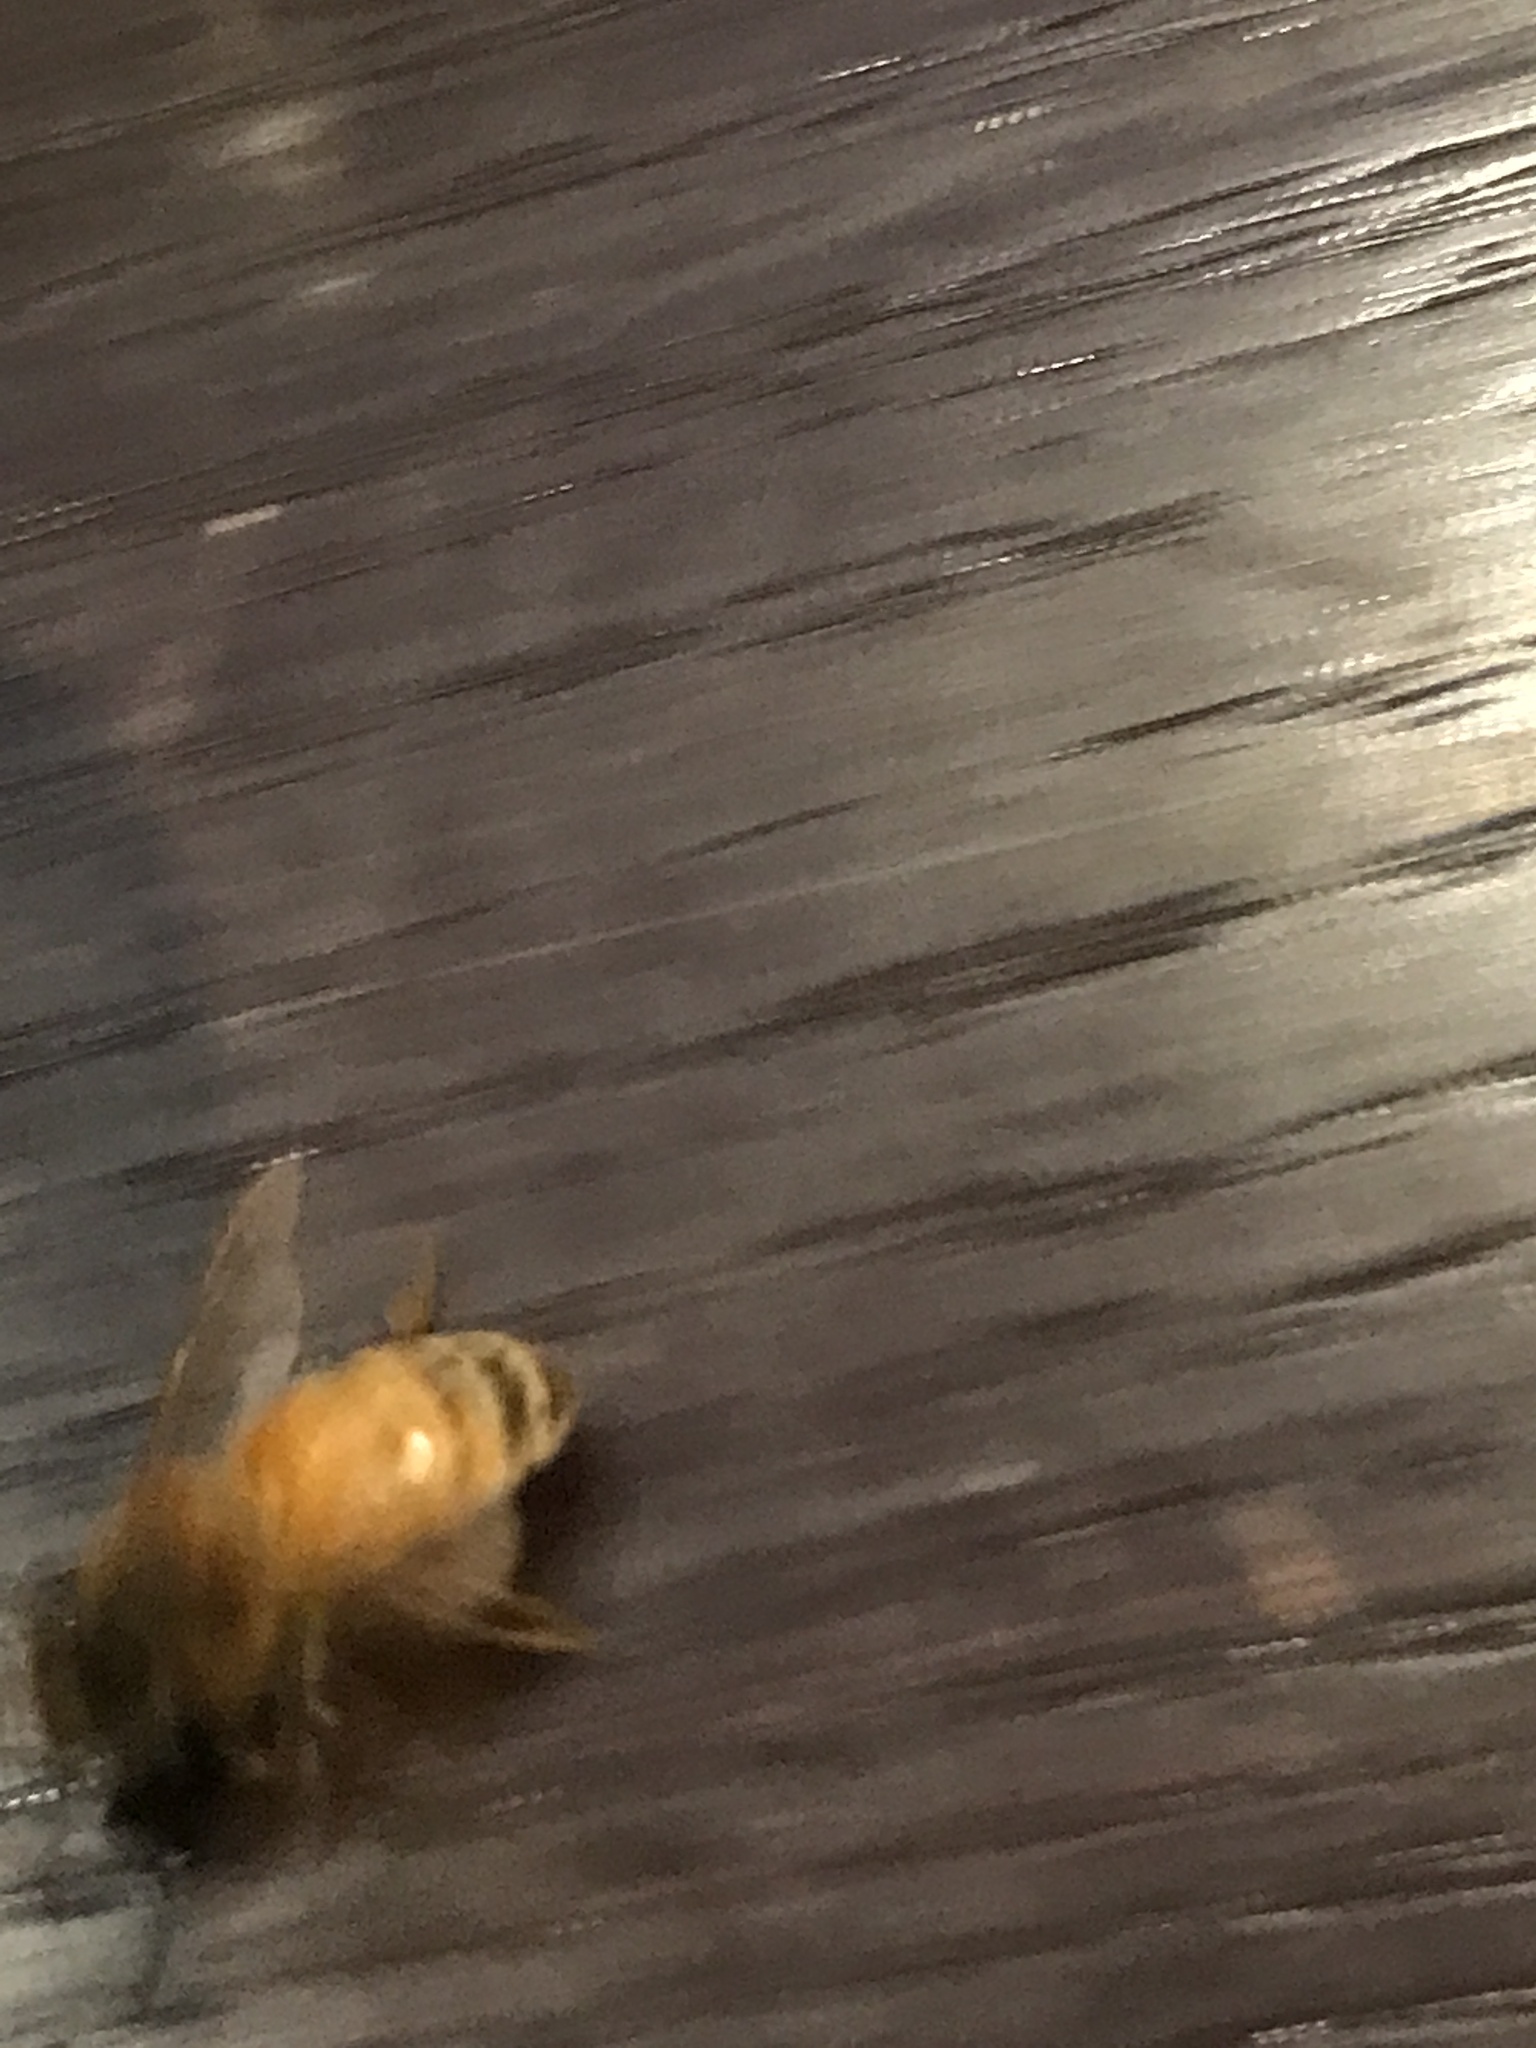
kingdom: Animalia
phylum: Arthropoda
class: Insecta
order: Hymenoptera
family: Apidae
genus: Apis
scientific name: Apis mellifera
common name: Honey bee
